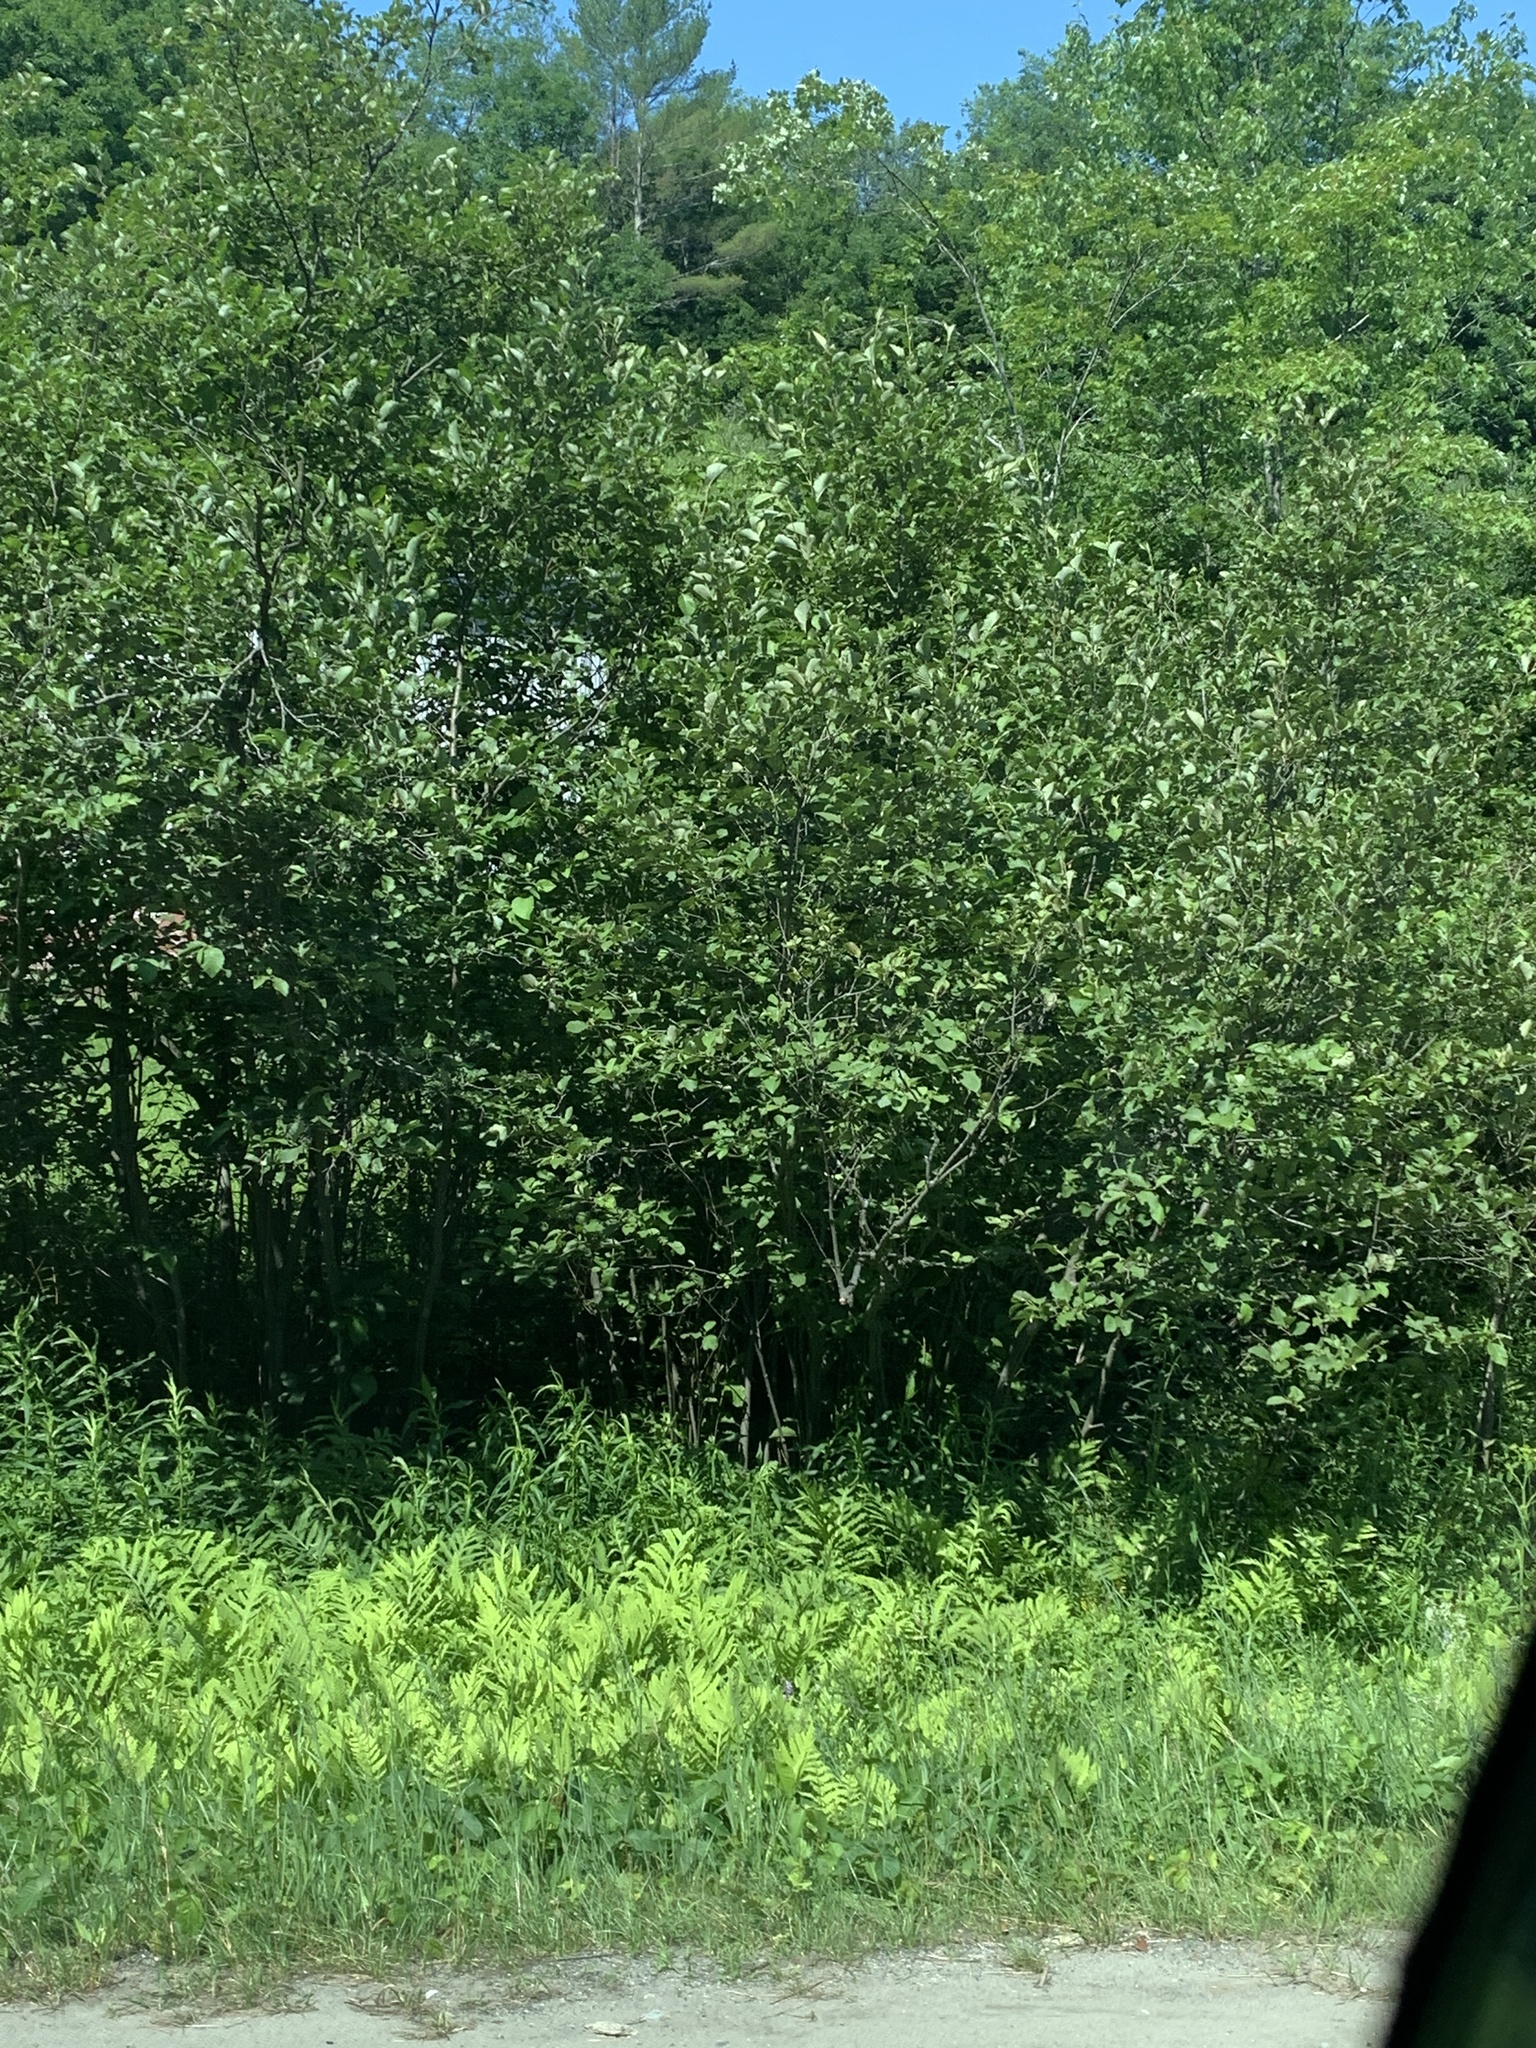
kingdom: Plantae
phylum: Tracheophyta
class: Polypodiopsida
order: Polypodiales
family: Onocleaceae
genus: Onoclea
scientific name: Onoclea sensibilis
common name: Sensitive fern
